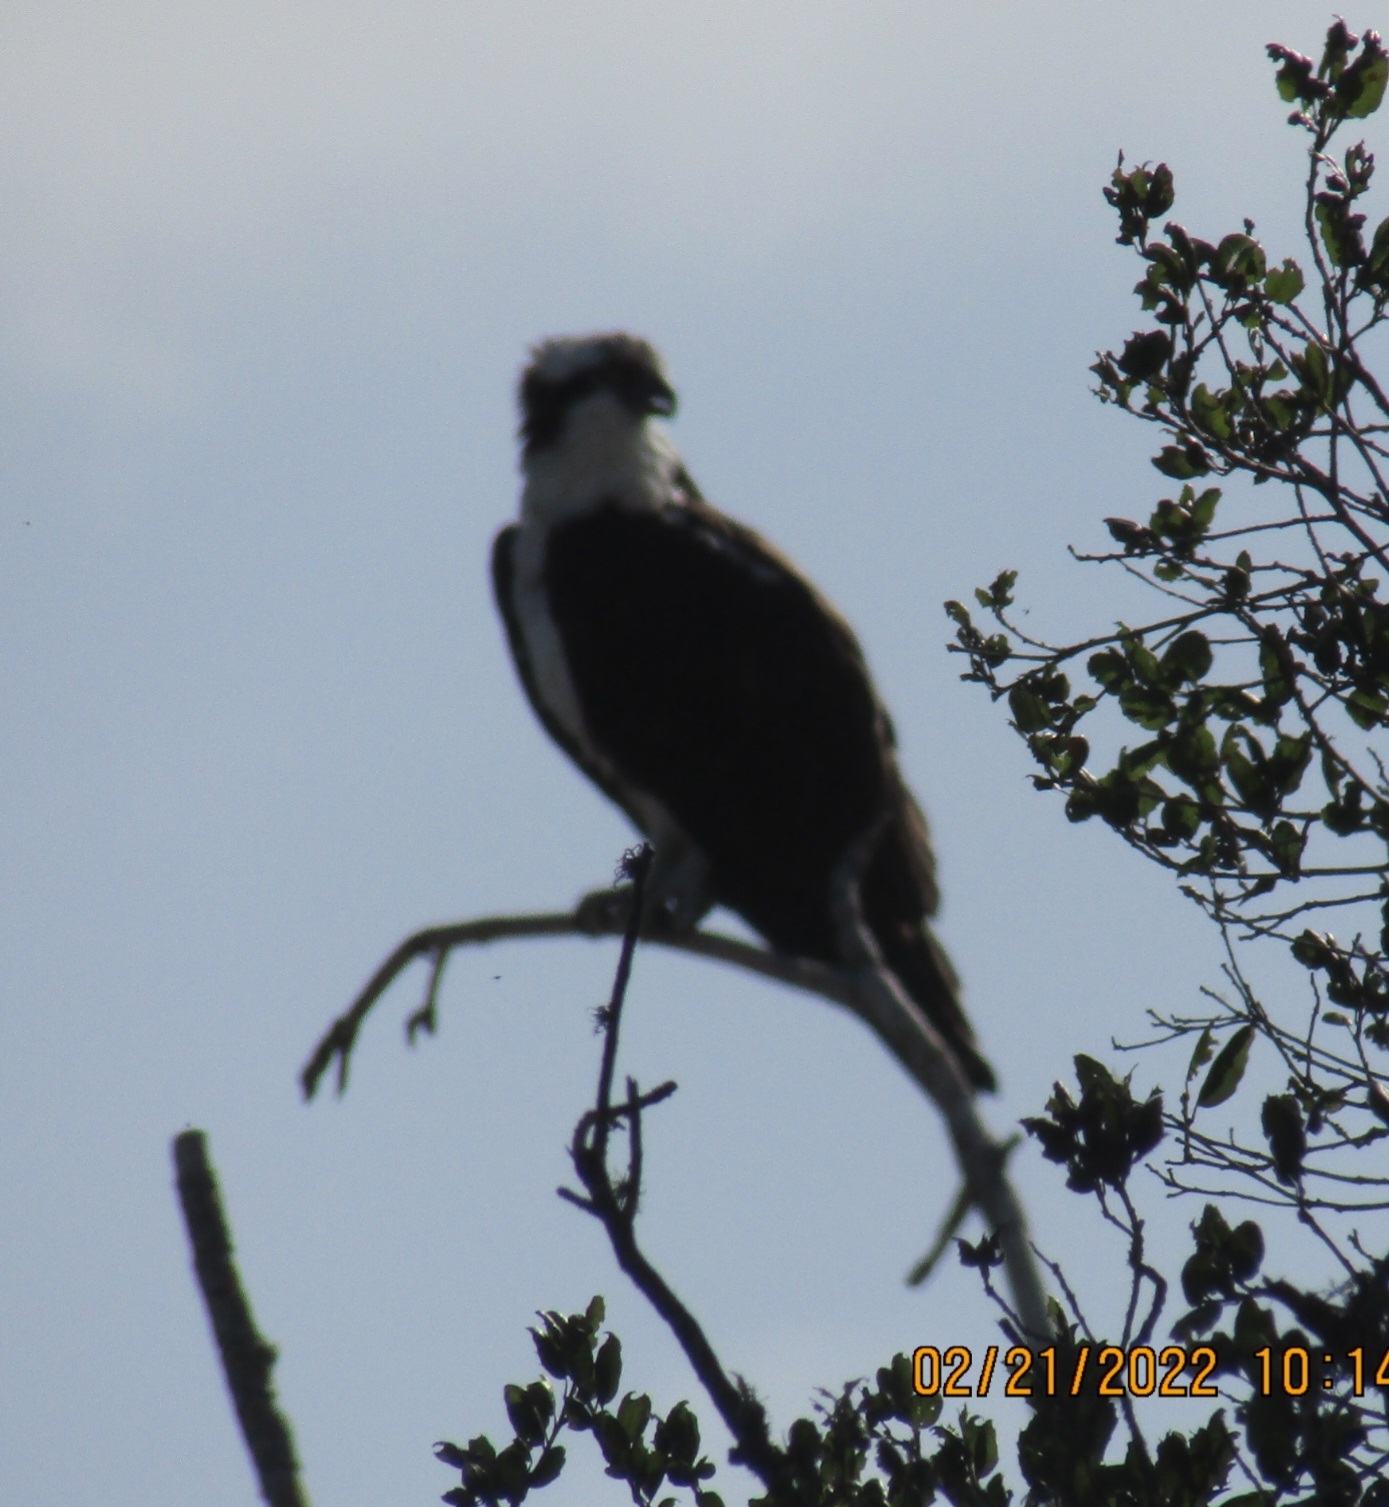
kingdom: Animalia
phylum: Chordata
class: Aves
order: Accipitriformes
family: Pandionidae
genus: Pandion
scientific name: Pandion haliaetus
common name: Osprey
